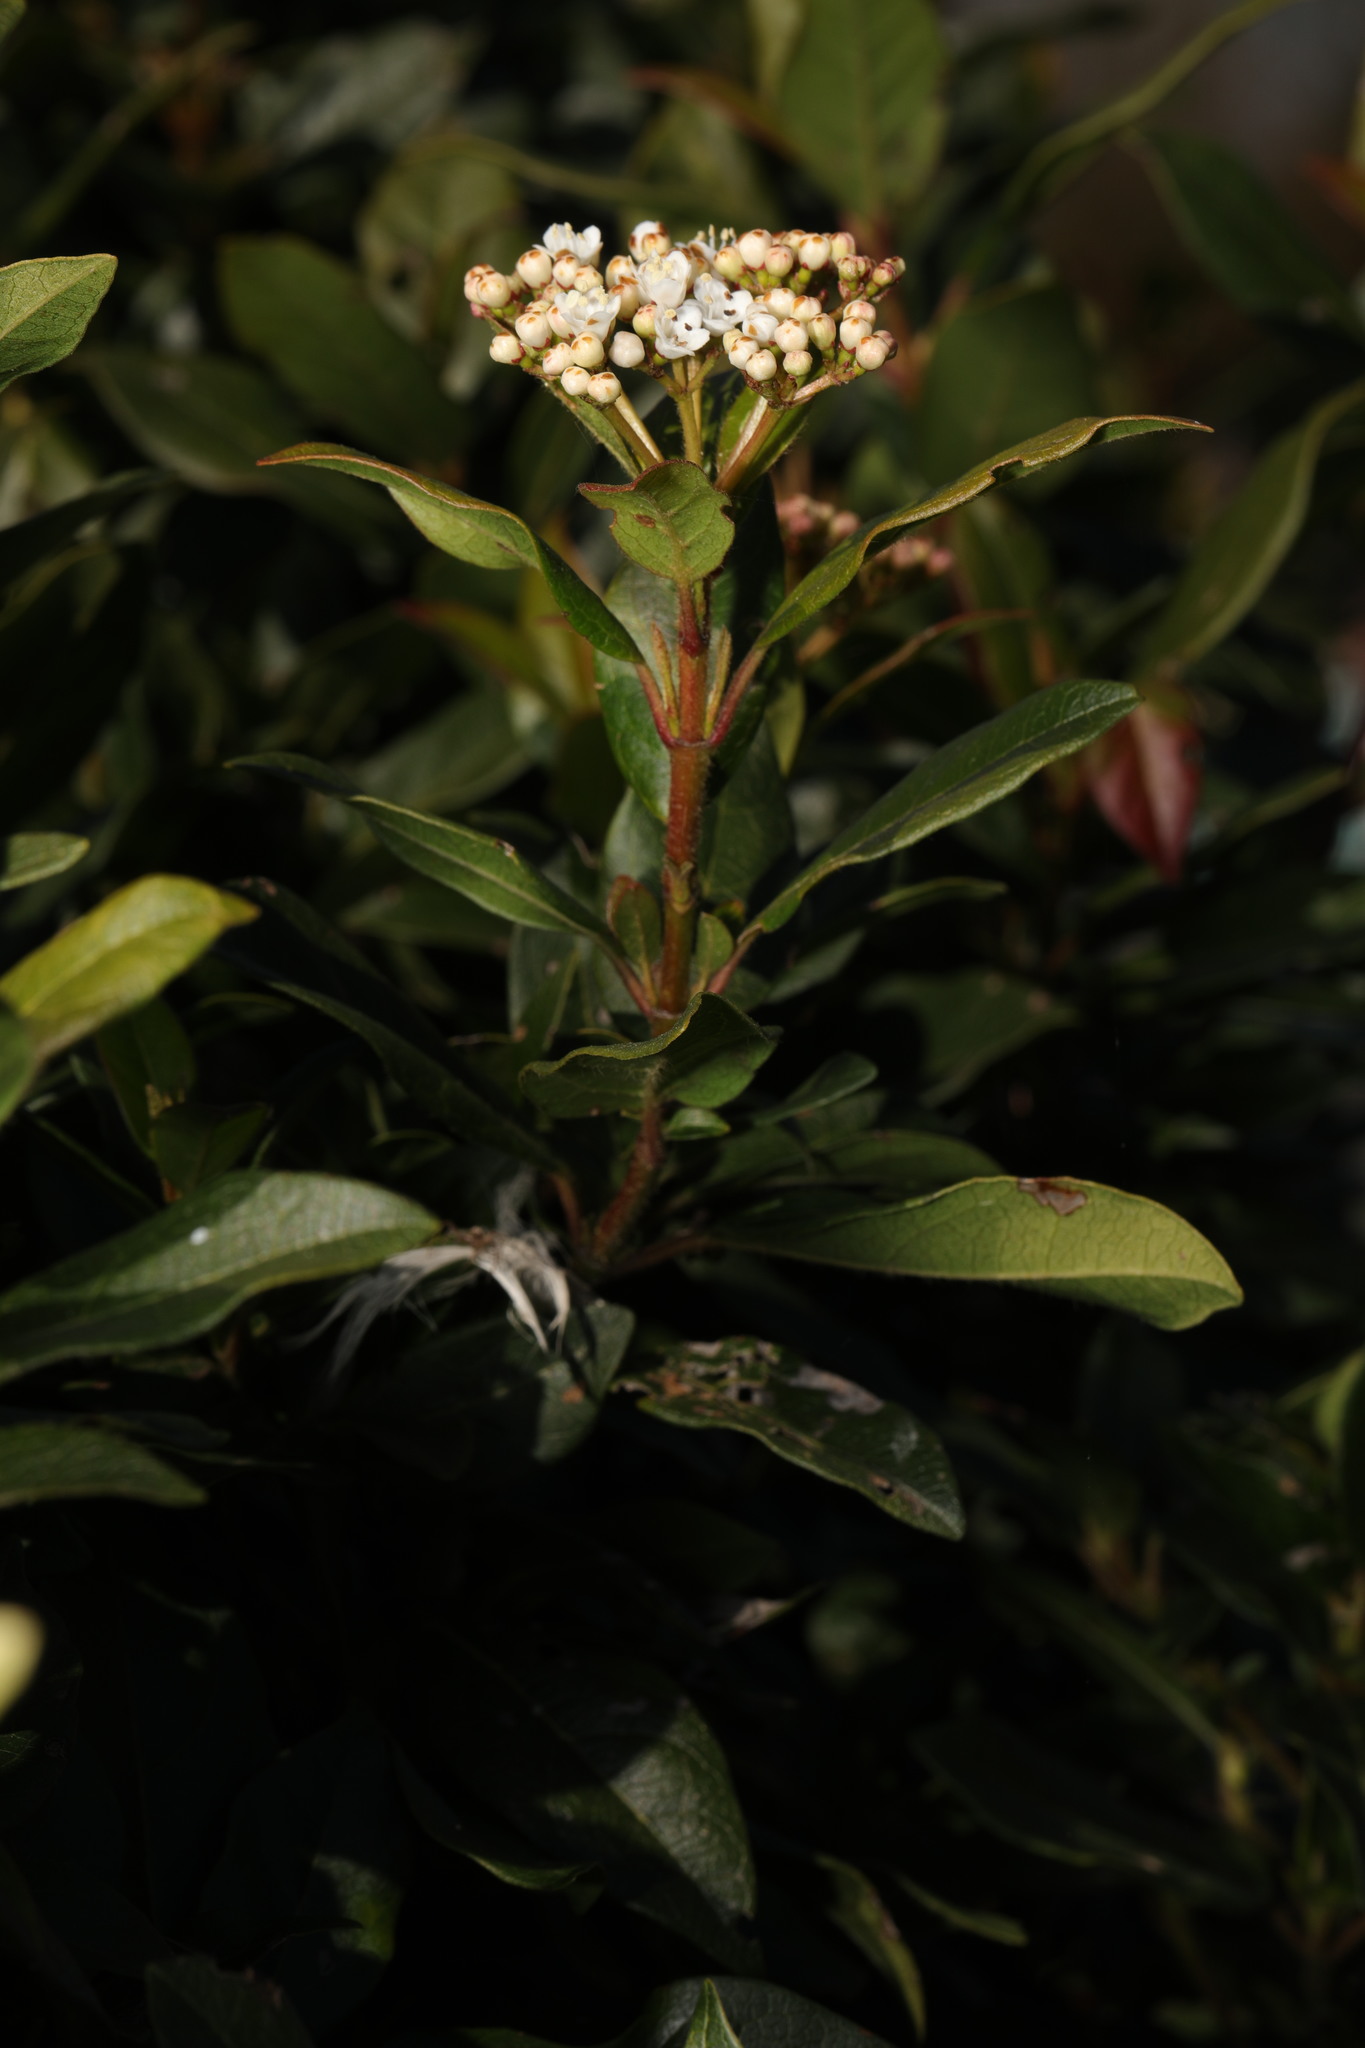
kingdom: Plantae
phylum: Tracheophyta
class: Magnoliopsida
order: Dipsacales
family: Viburnaceae
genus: Viburnum
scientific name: Viburnum tinus
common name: Laurustinus
